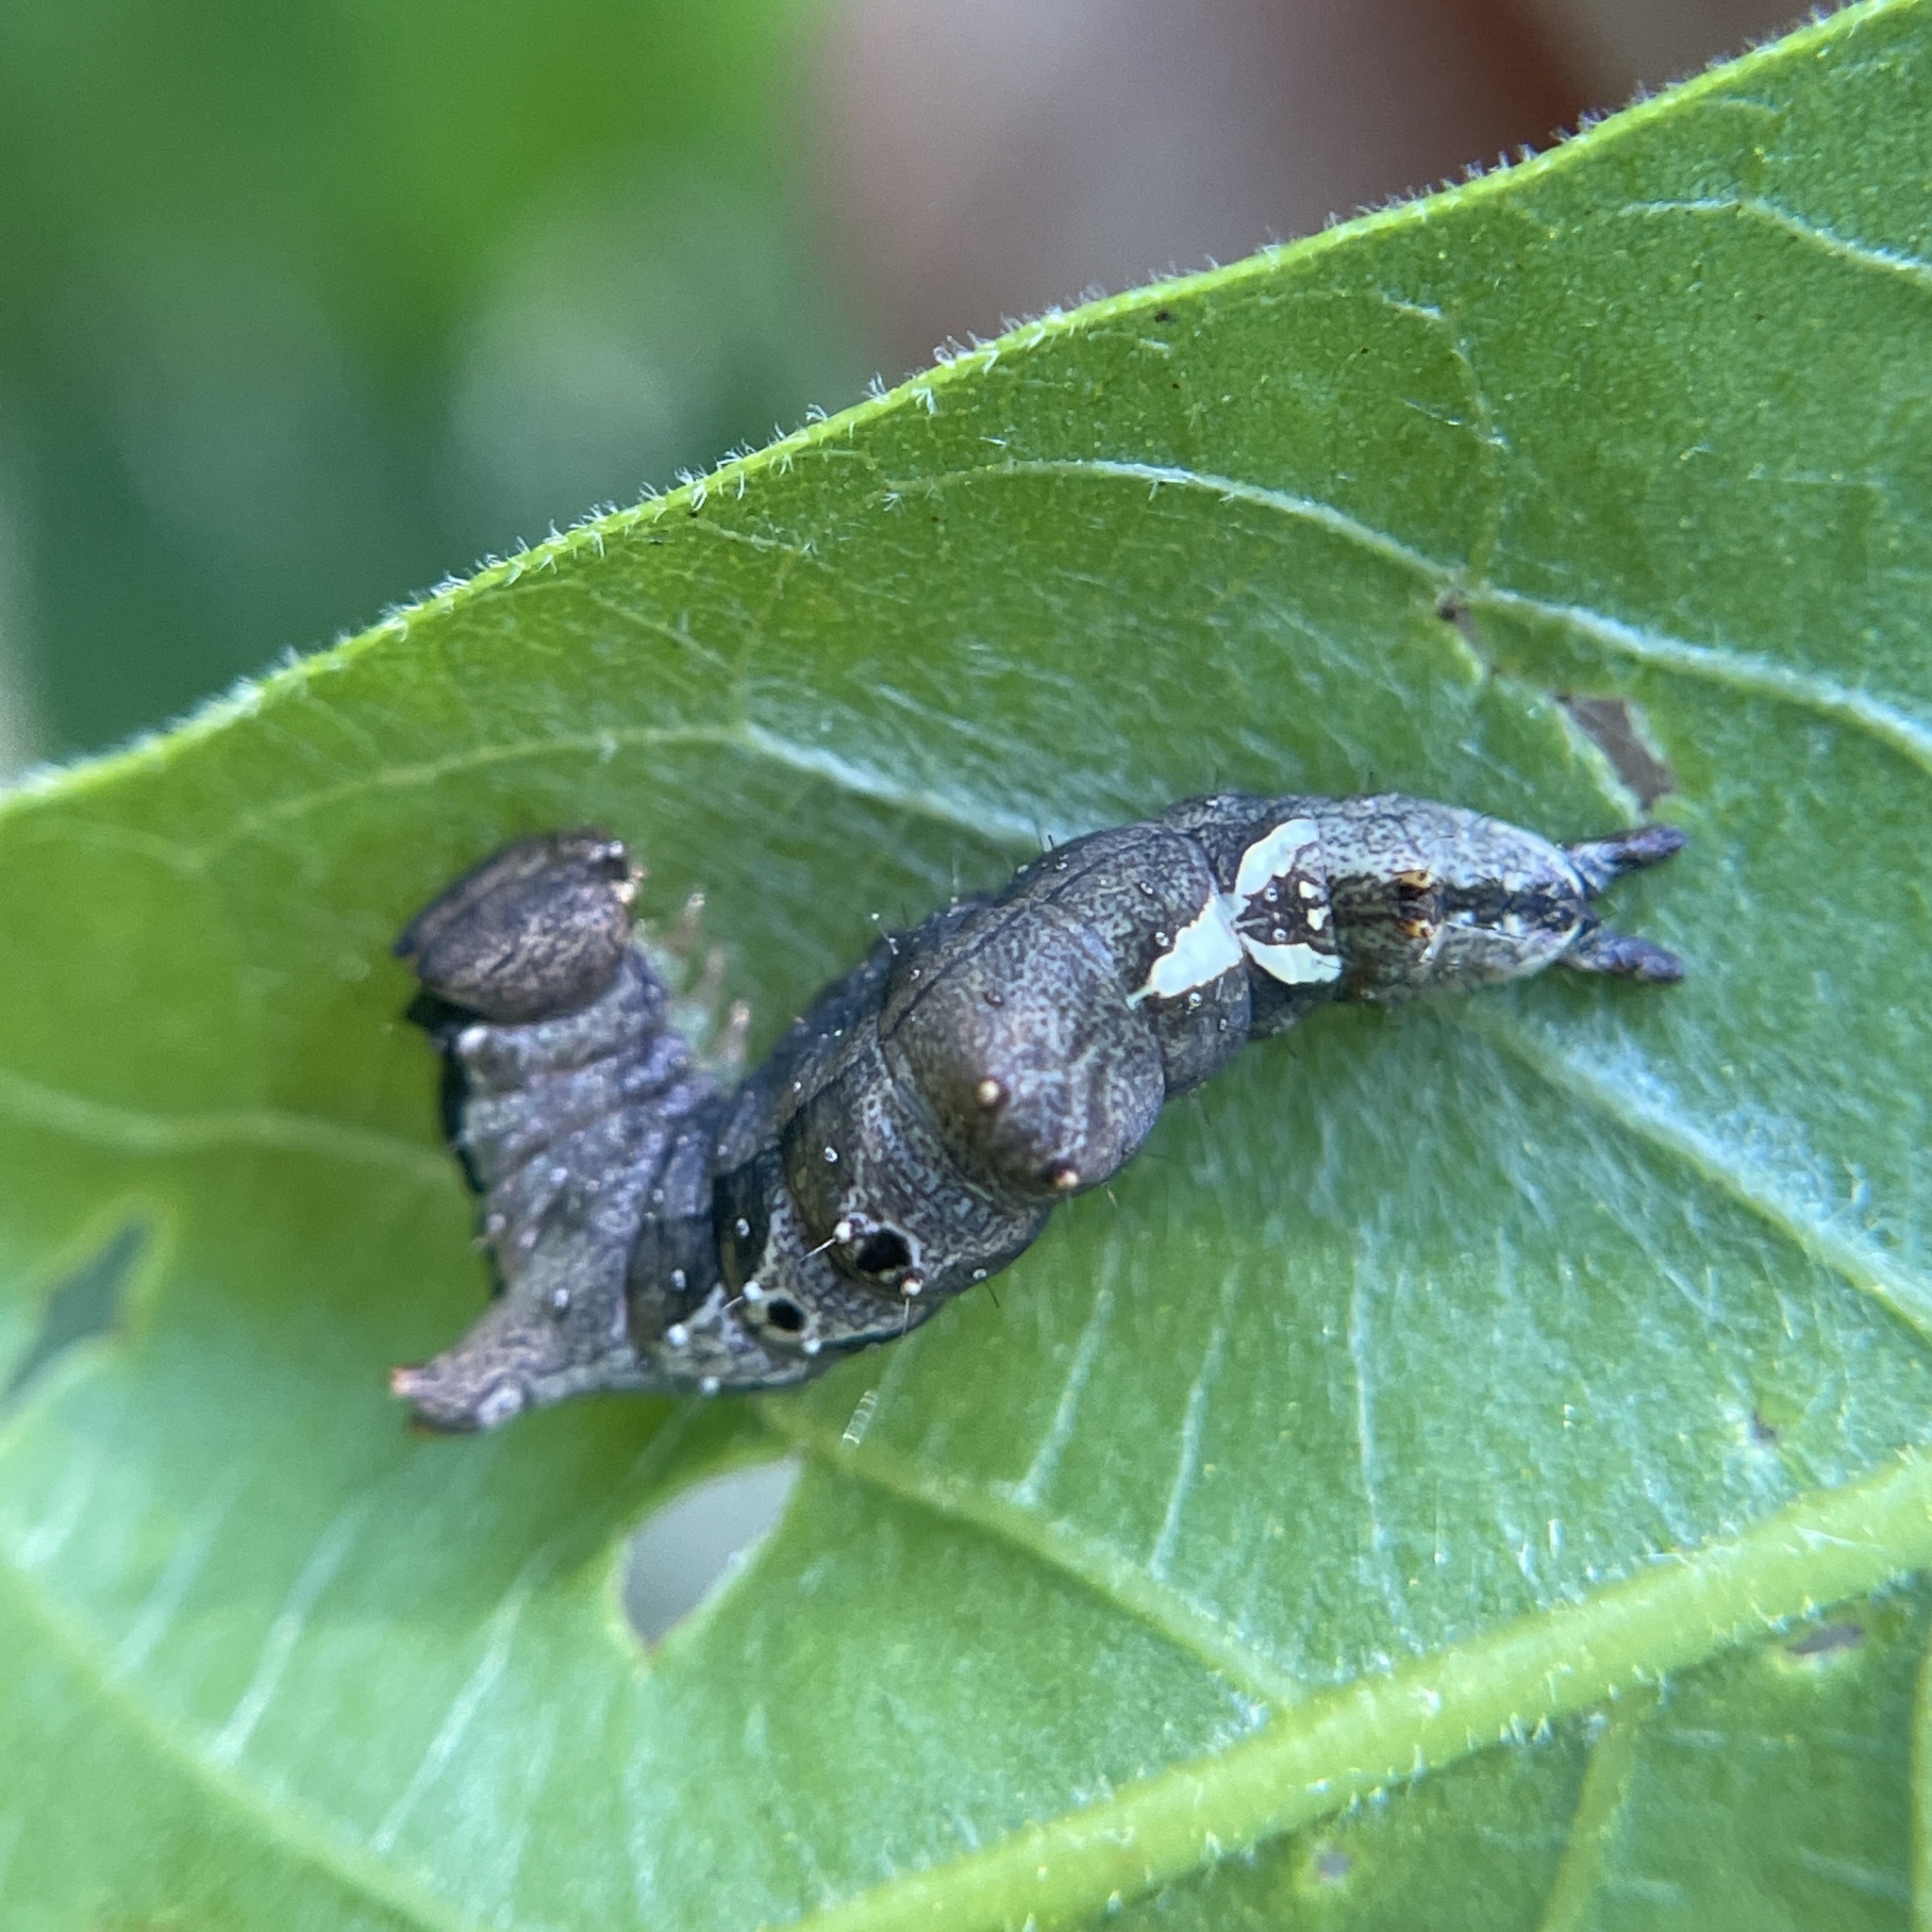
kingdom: Animalia
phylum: Arthropoda
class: Insecta
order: Lepidoptera
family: Notodontidae
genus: Schizura
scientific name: Schizura
